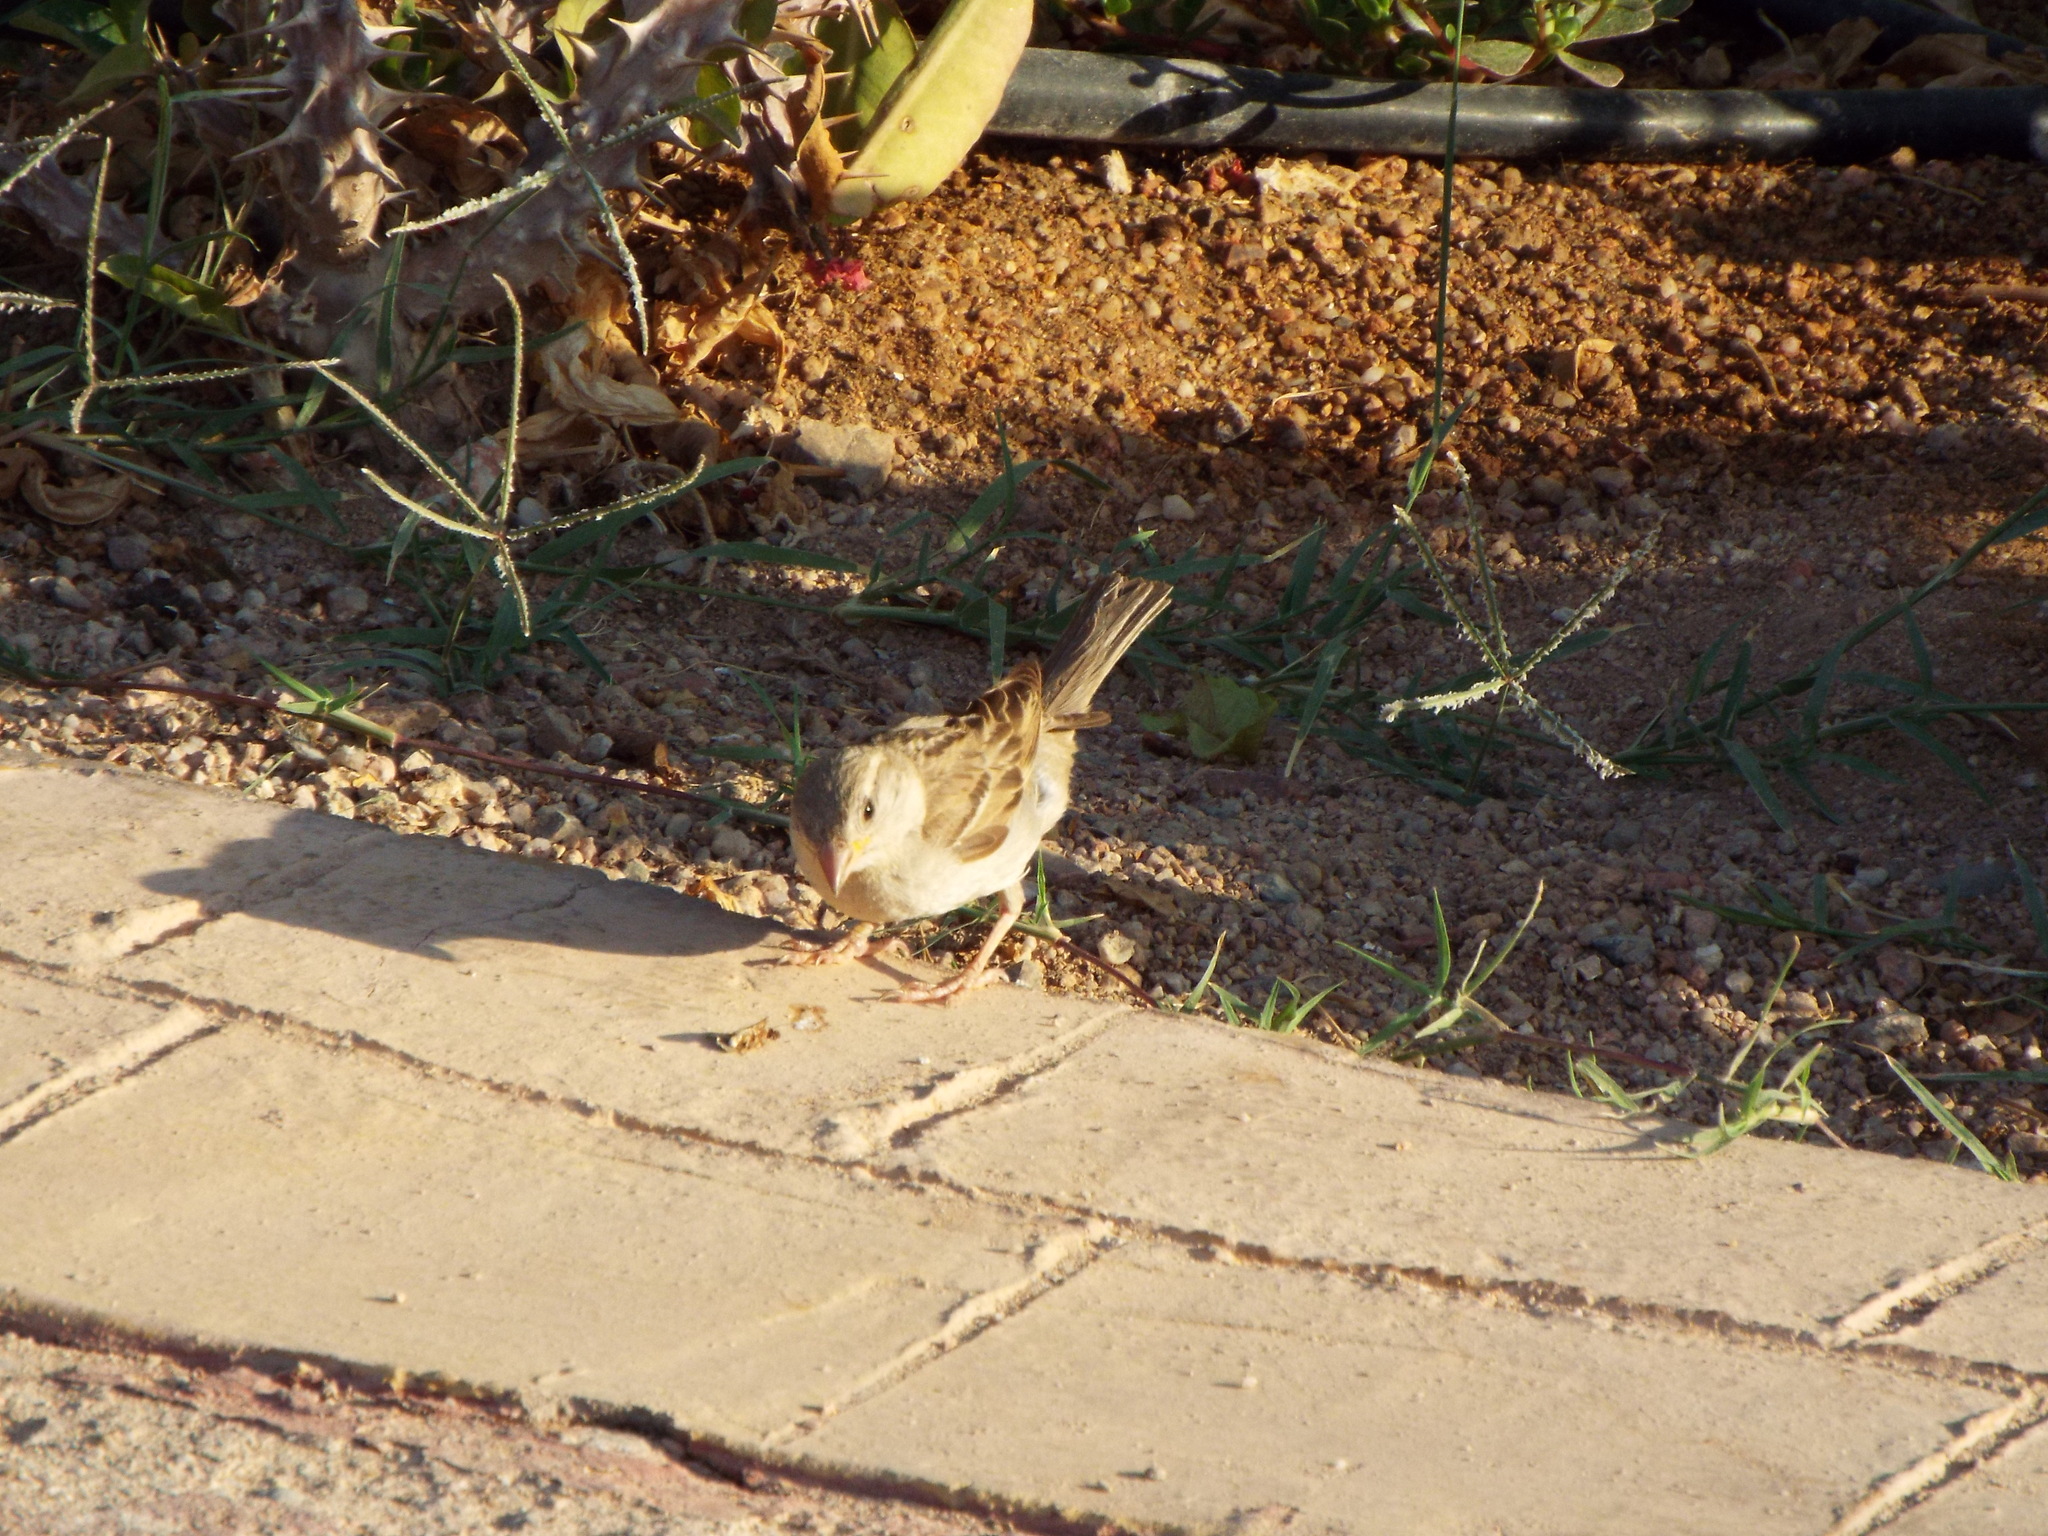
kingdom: Animalia
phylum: Chordata
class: Aves
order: Passeriformes
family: Passeridae
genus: Passer
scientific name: Passer domesticus
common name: House sparrow
